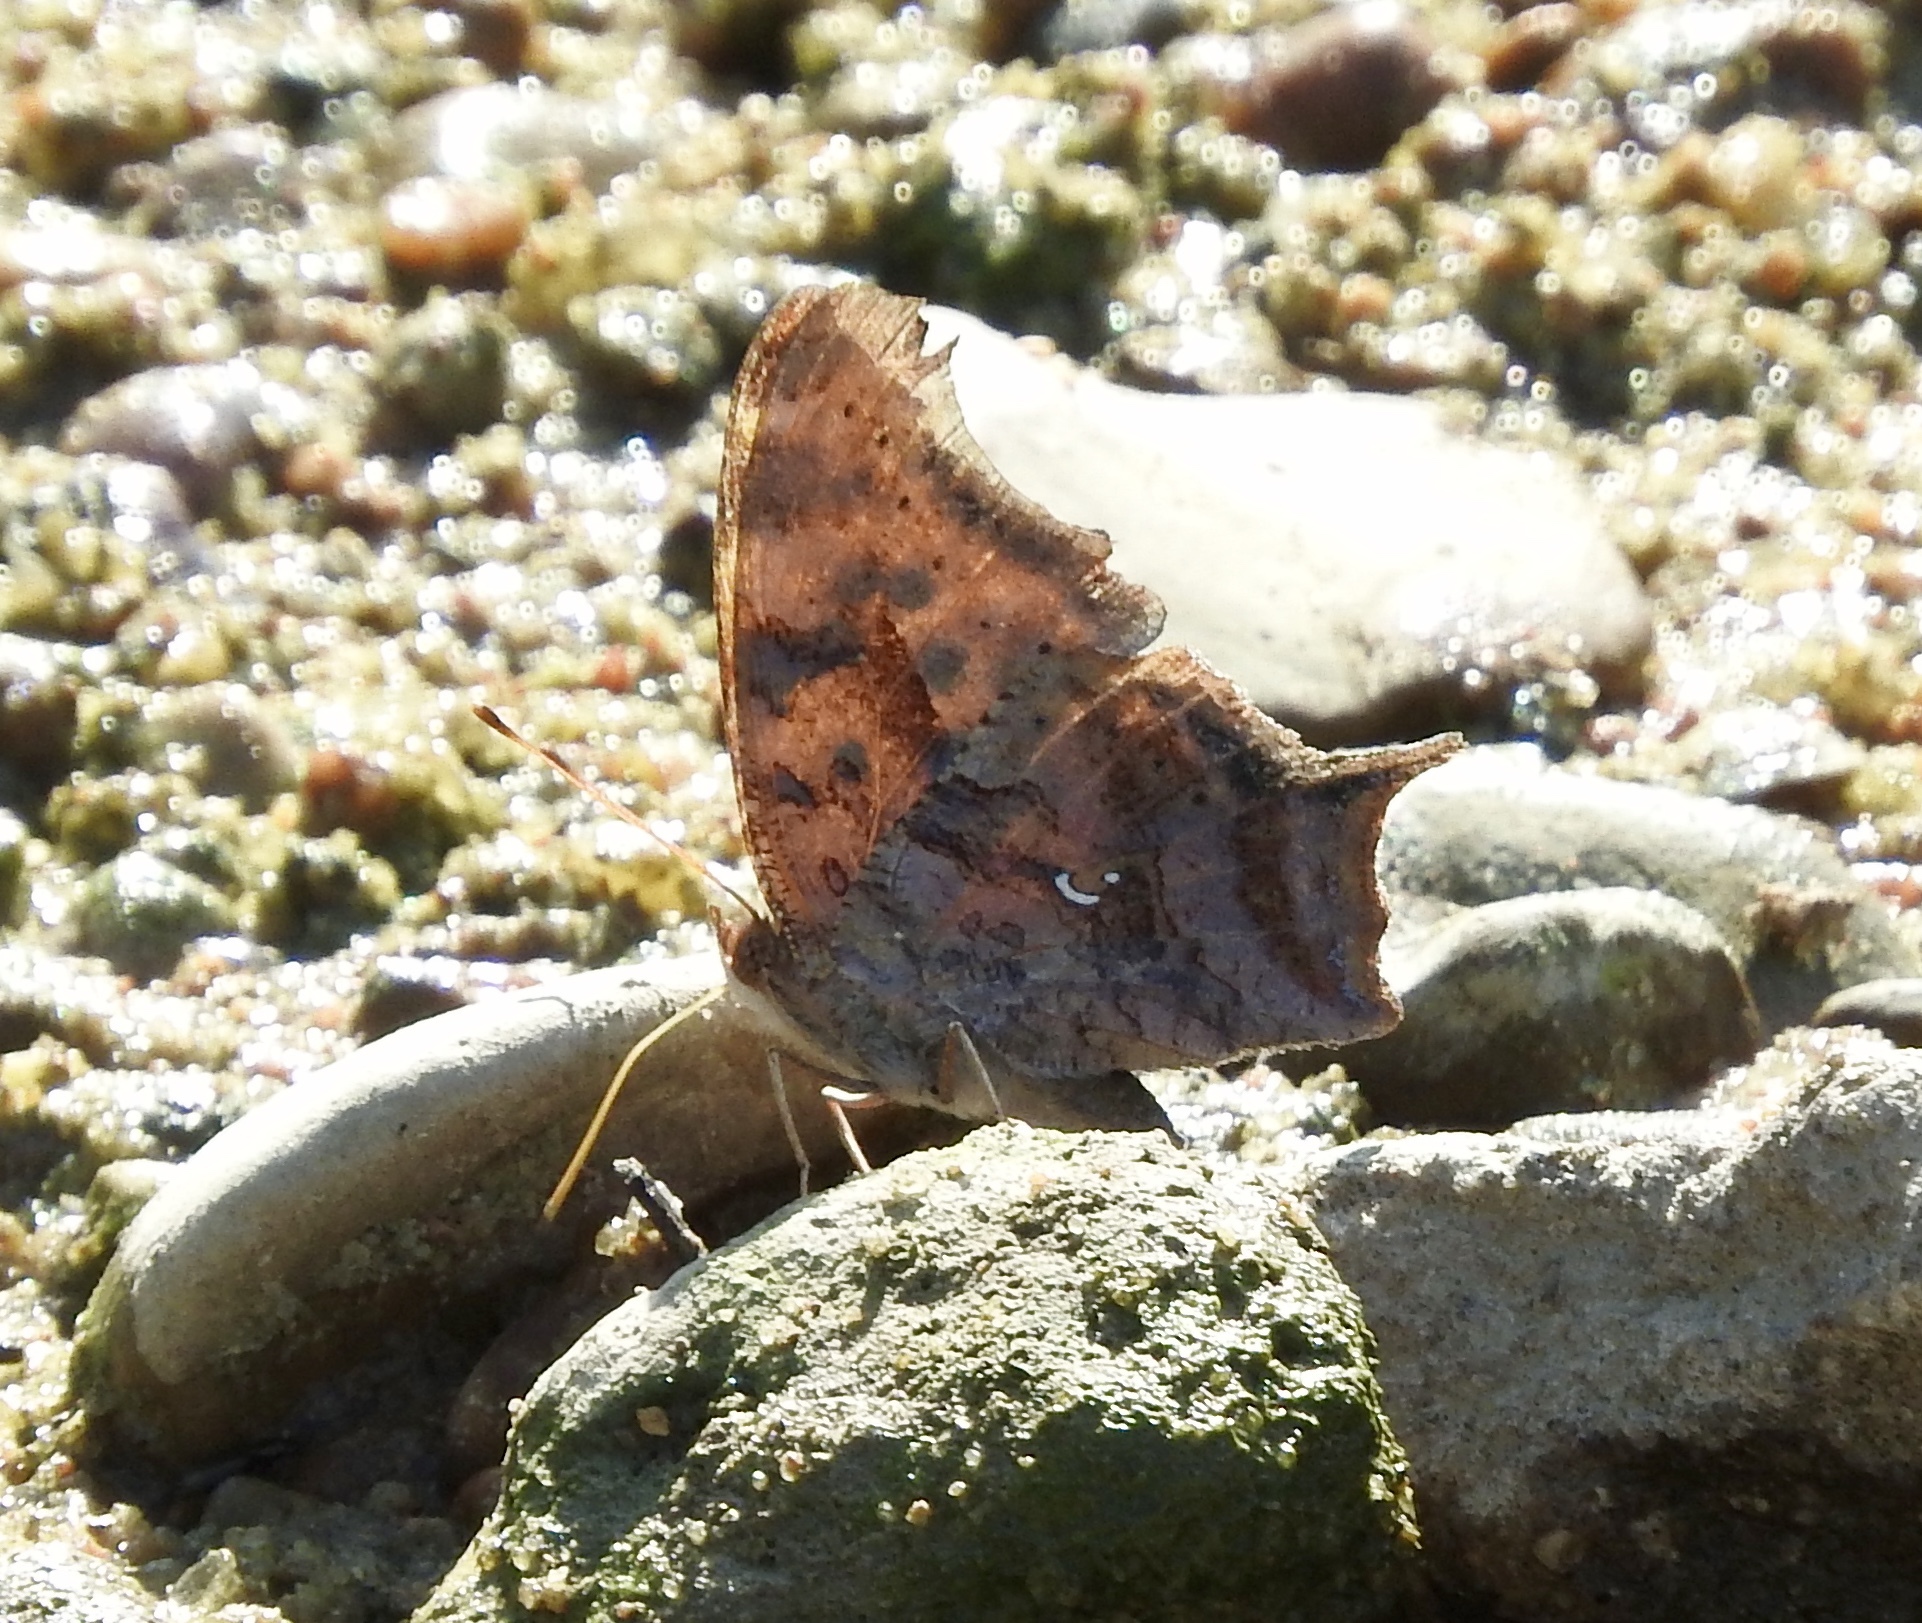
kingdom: Animalia
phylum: Arthropoda
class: Insecta
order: Lepidoptera
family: Nymphalidae
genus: Polygonia
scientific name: Polygonia interrogationis
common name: Question mark
